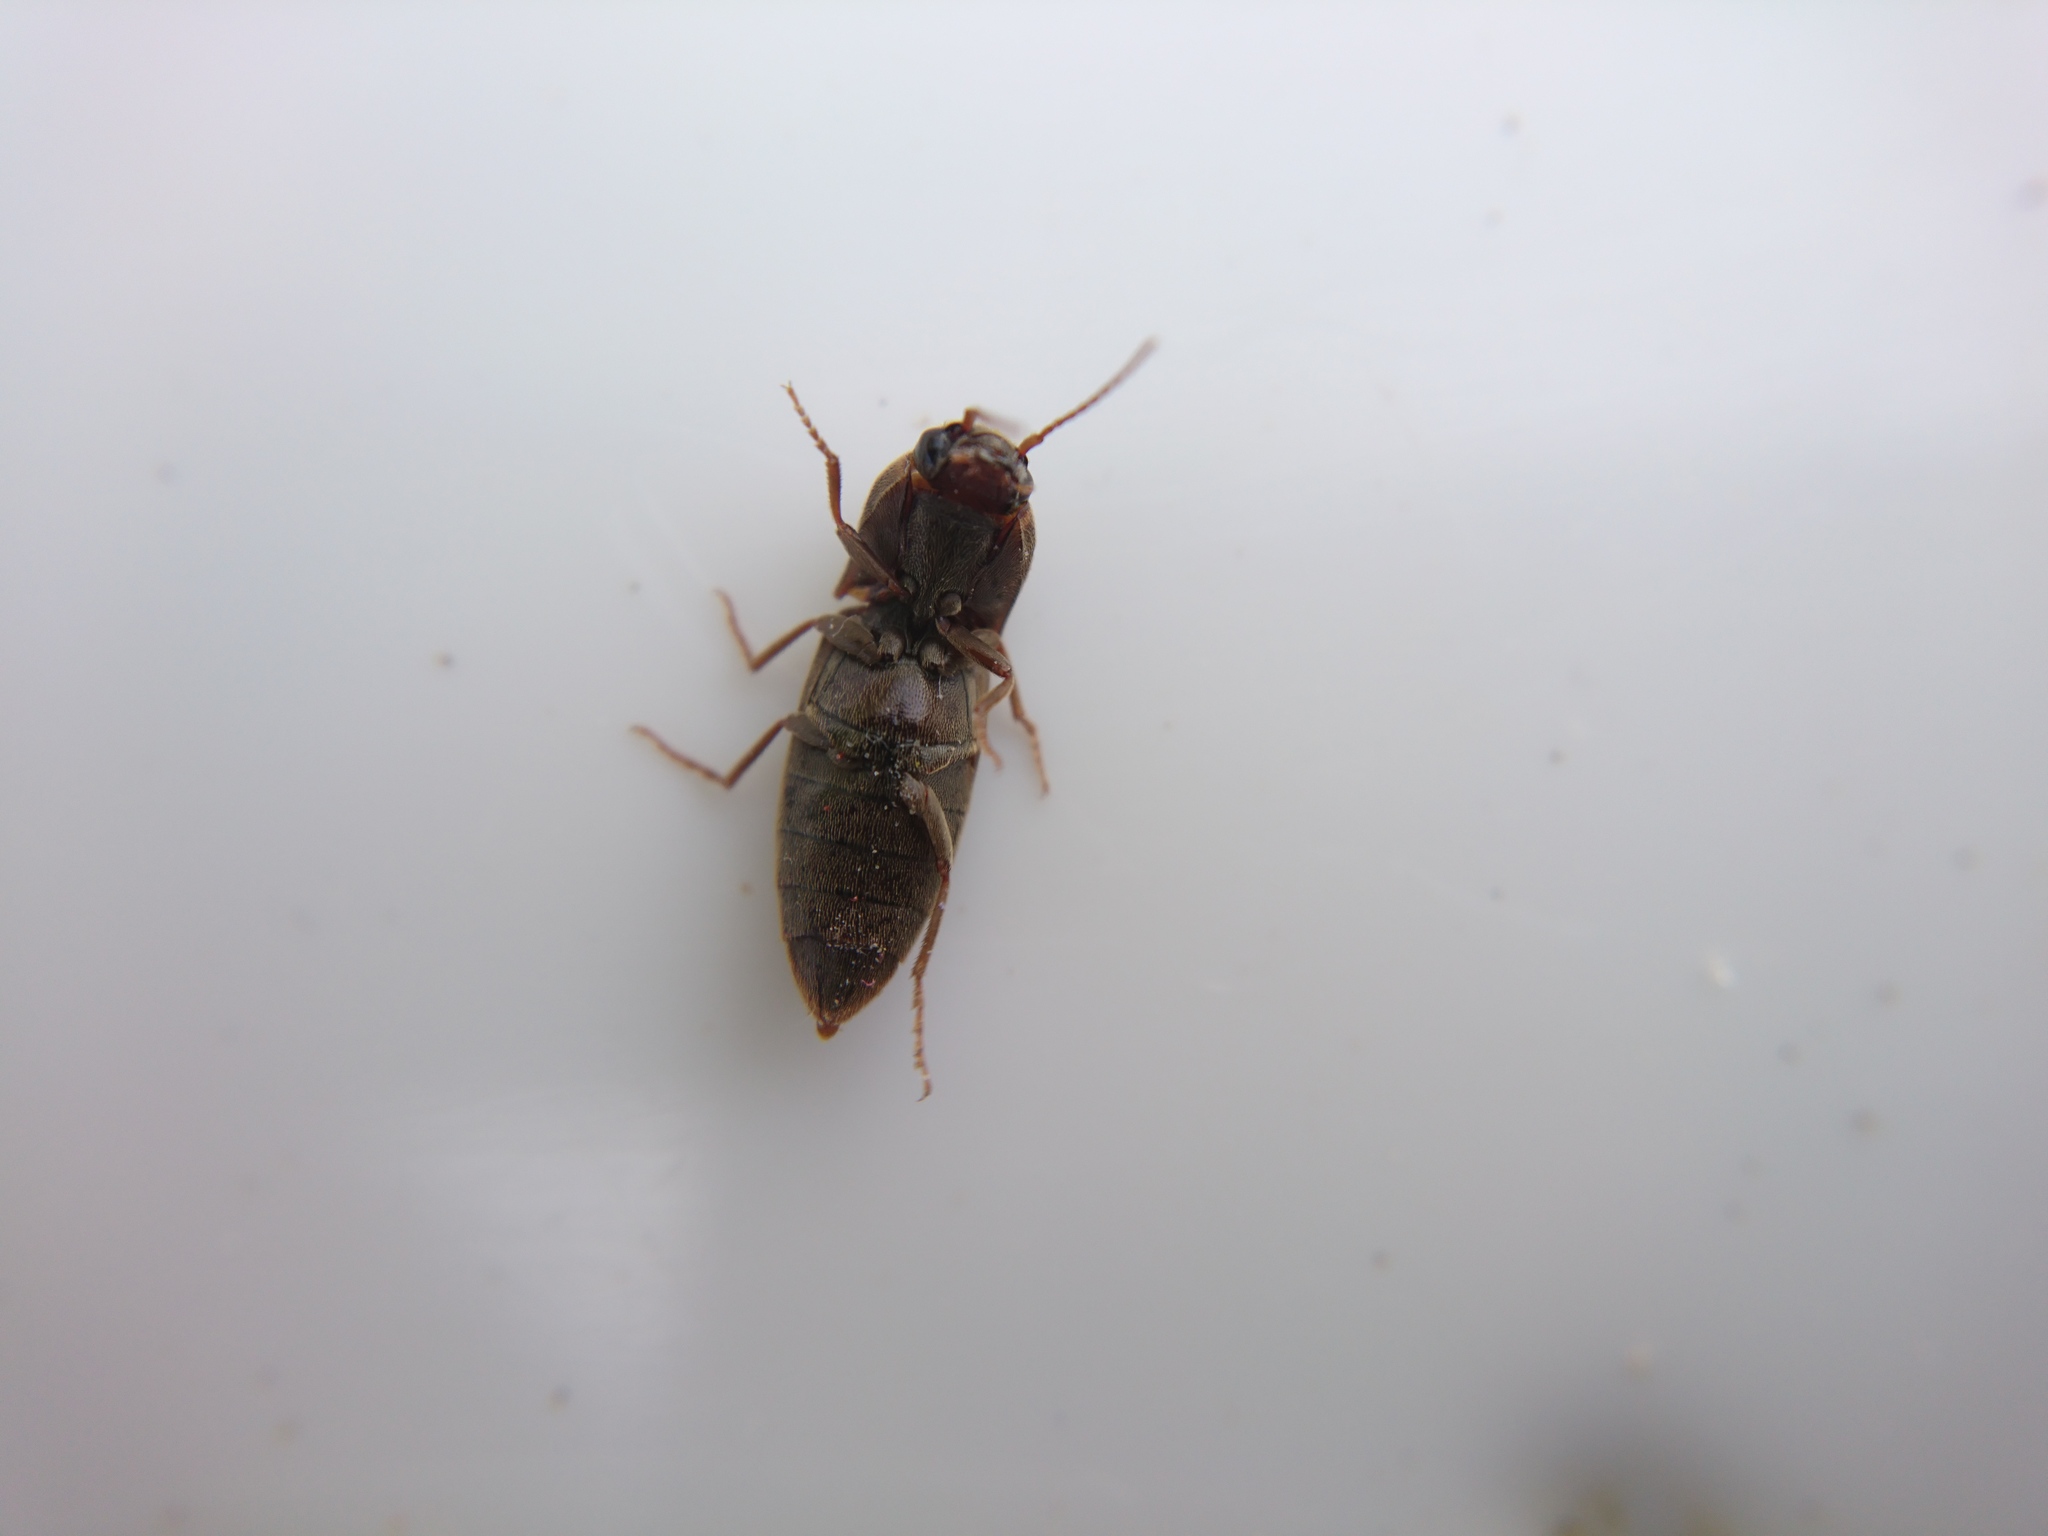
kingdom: Animalia
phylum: Arthropoda
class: Insecta
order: Coleoptera
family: Elateridae
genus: Agriotes
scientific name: Agriotes lineatus
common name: Lined click beetle
